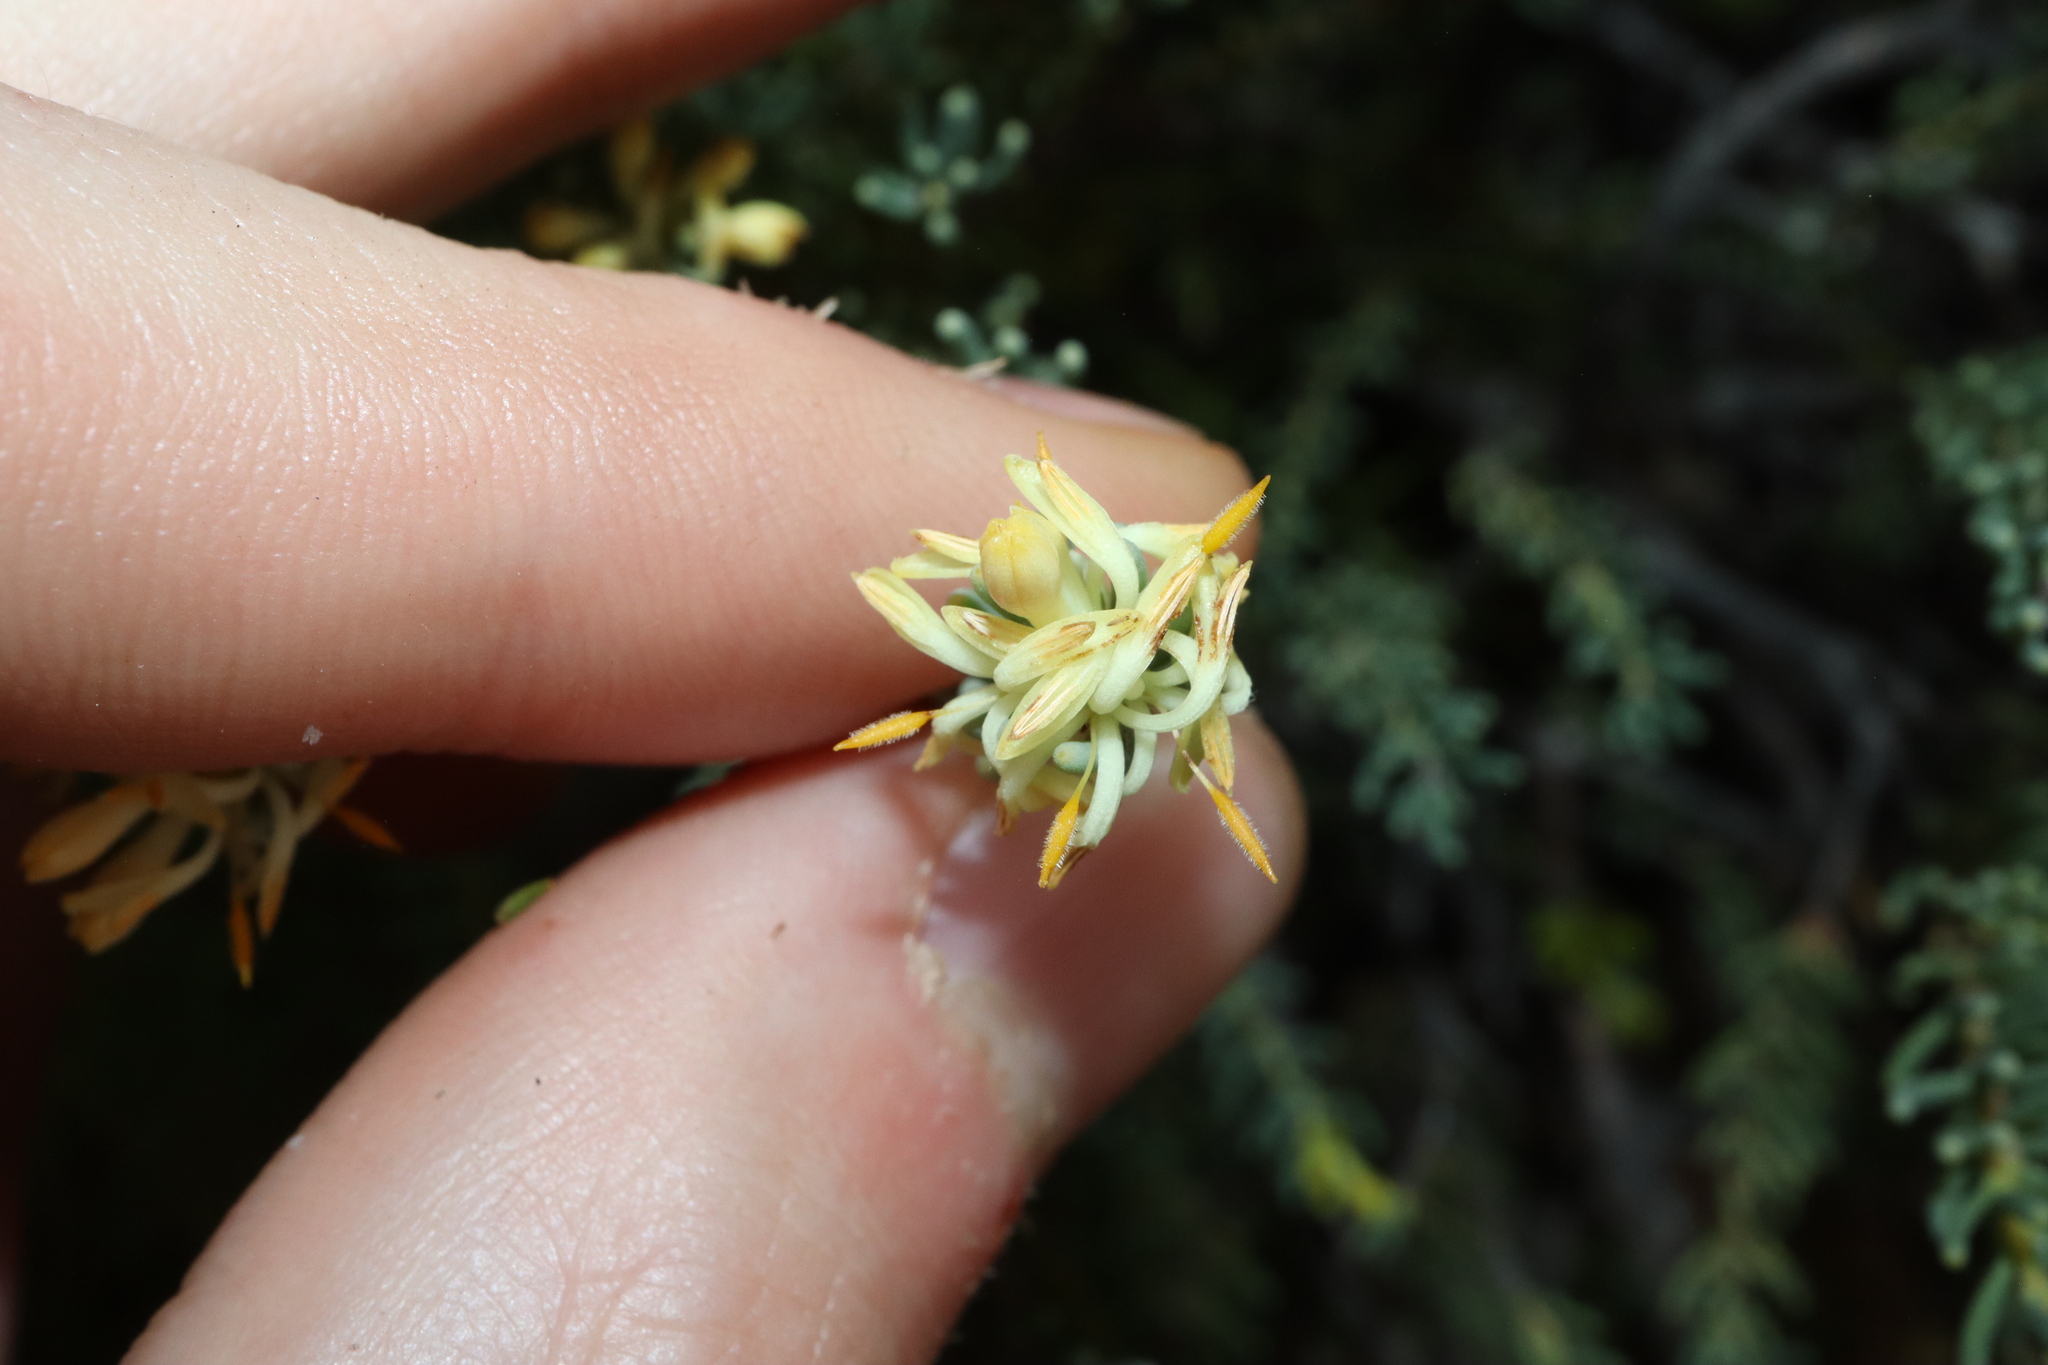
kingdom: Plantae
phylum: Tracheophyta
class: Magnoliopsida
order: Proteales
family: Proteaceae
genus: Petrophile
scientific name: Petrophile phylicoides
